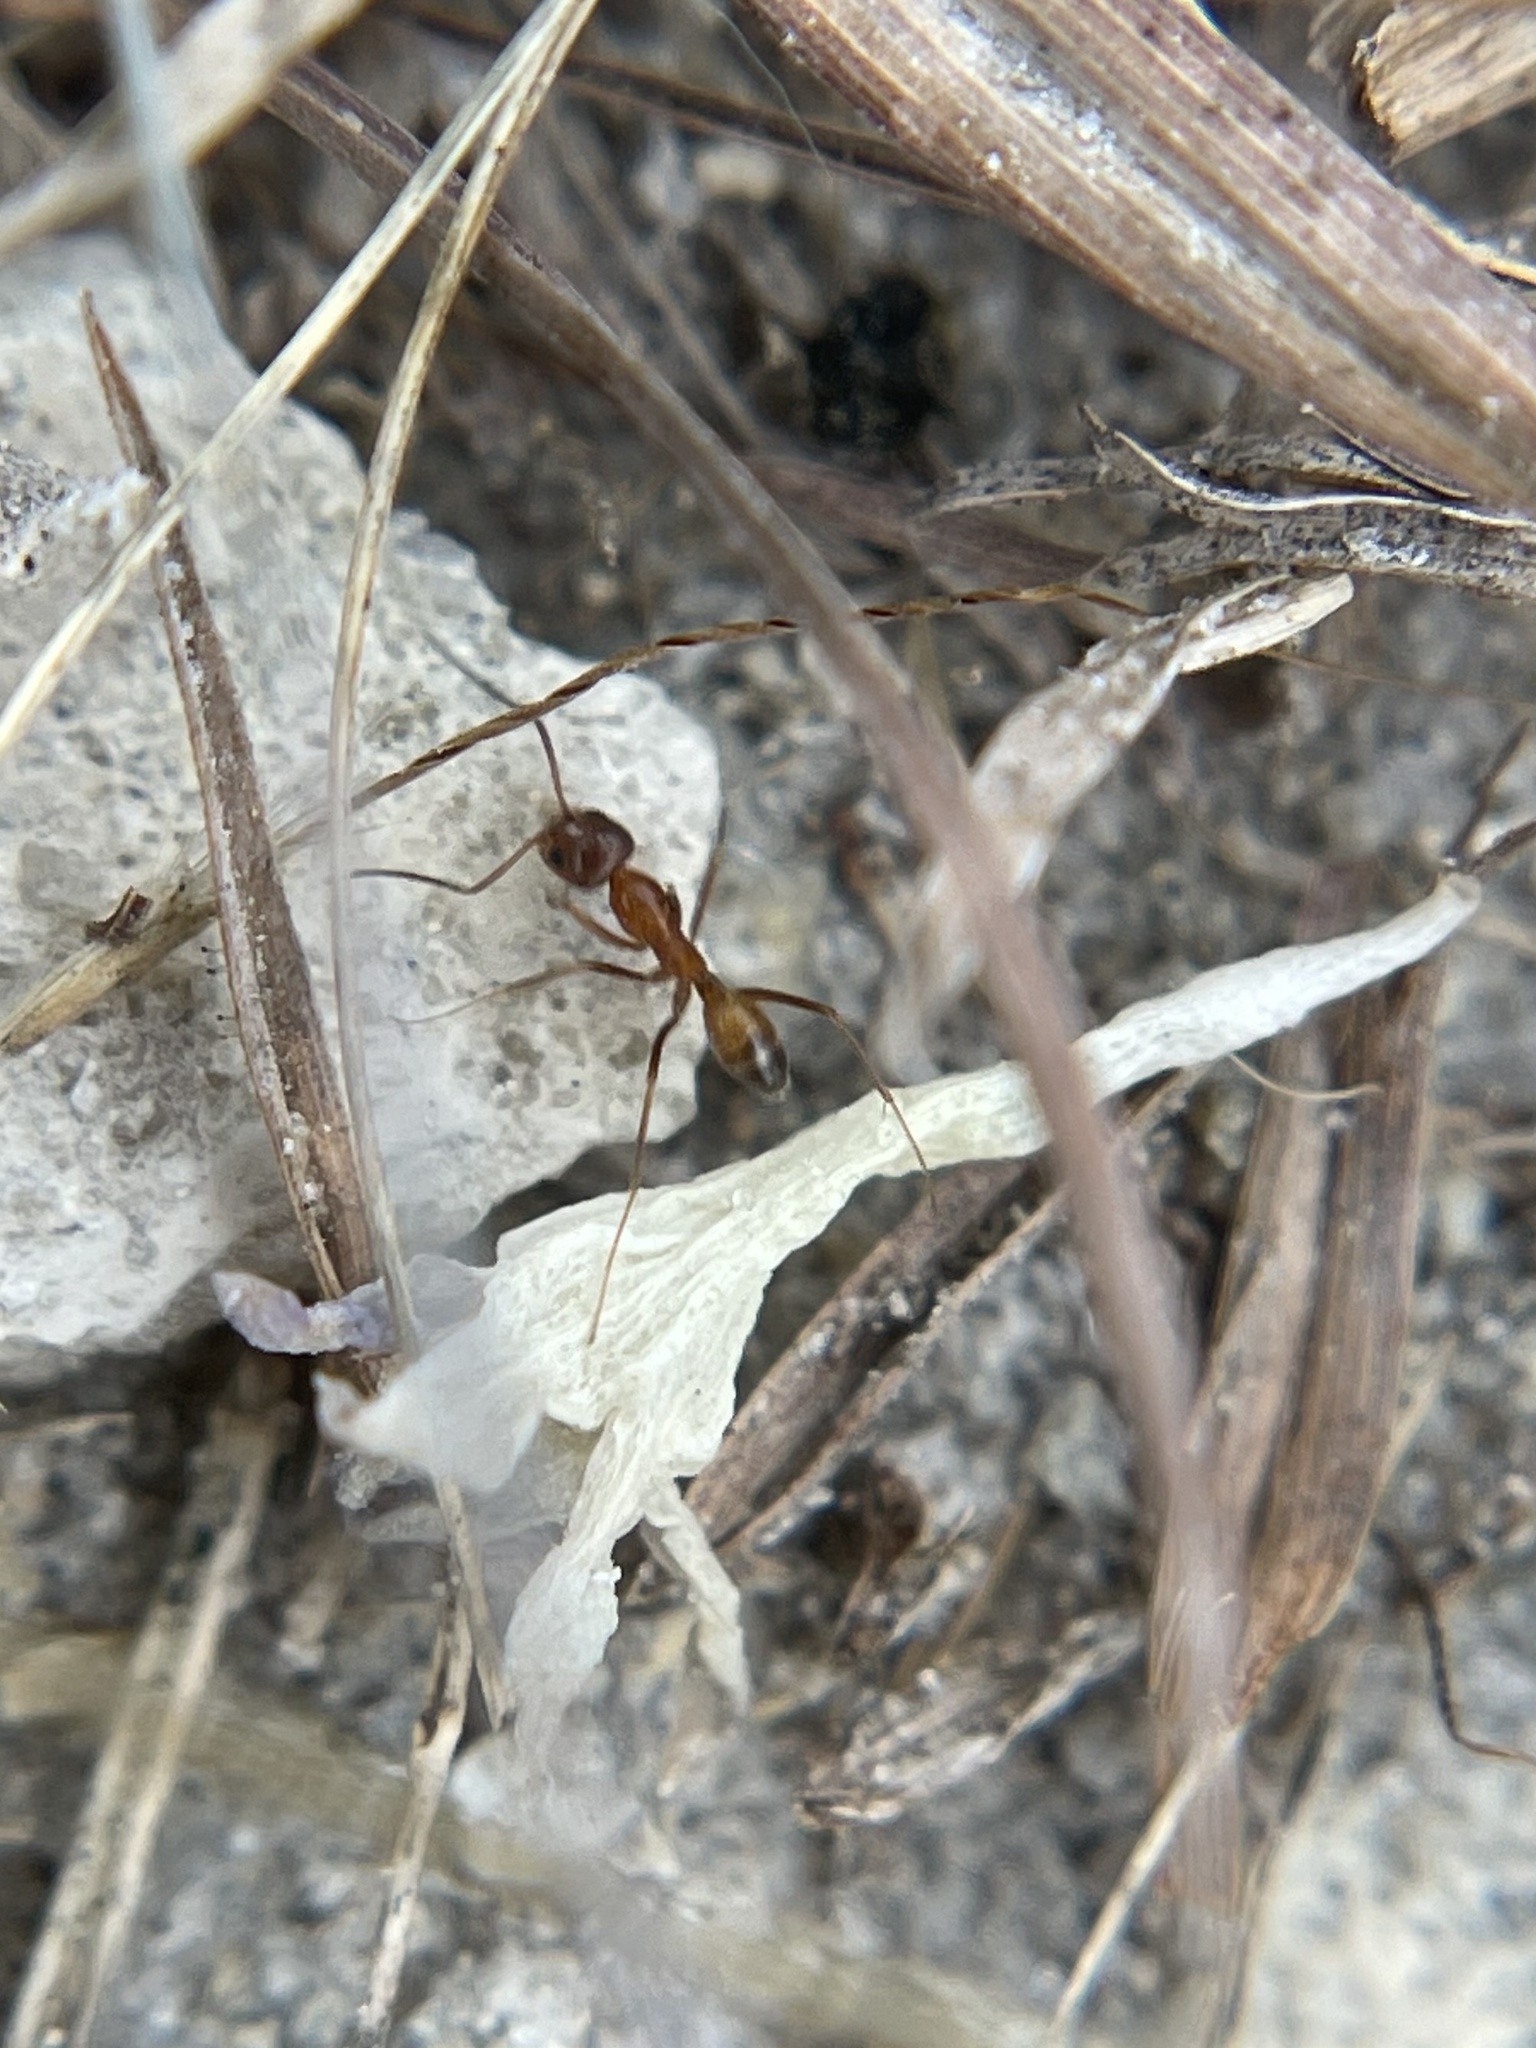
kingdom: Animalia
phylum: Arthropoda
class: Insecta
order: Hymenoptera
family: Formicidae
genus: Dorymyrmex
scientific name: Dorymyrmex bureni
